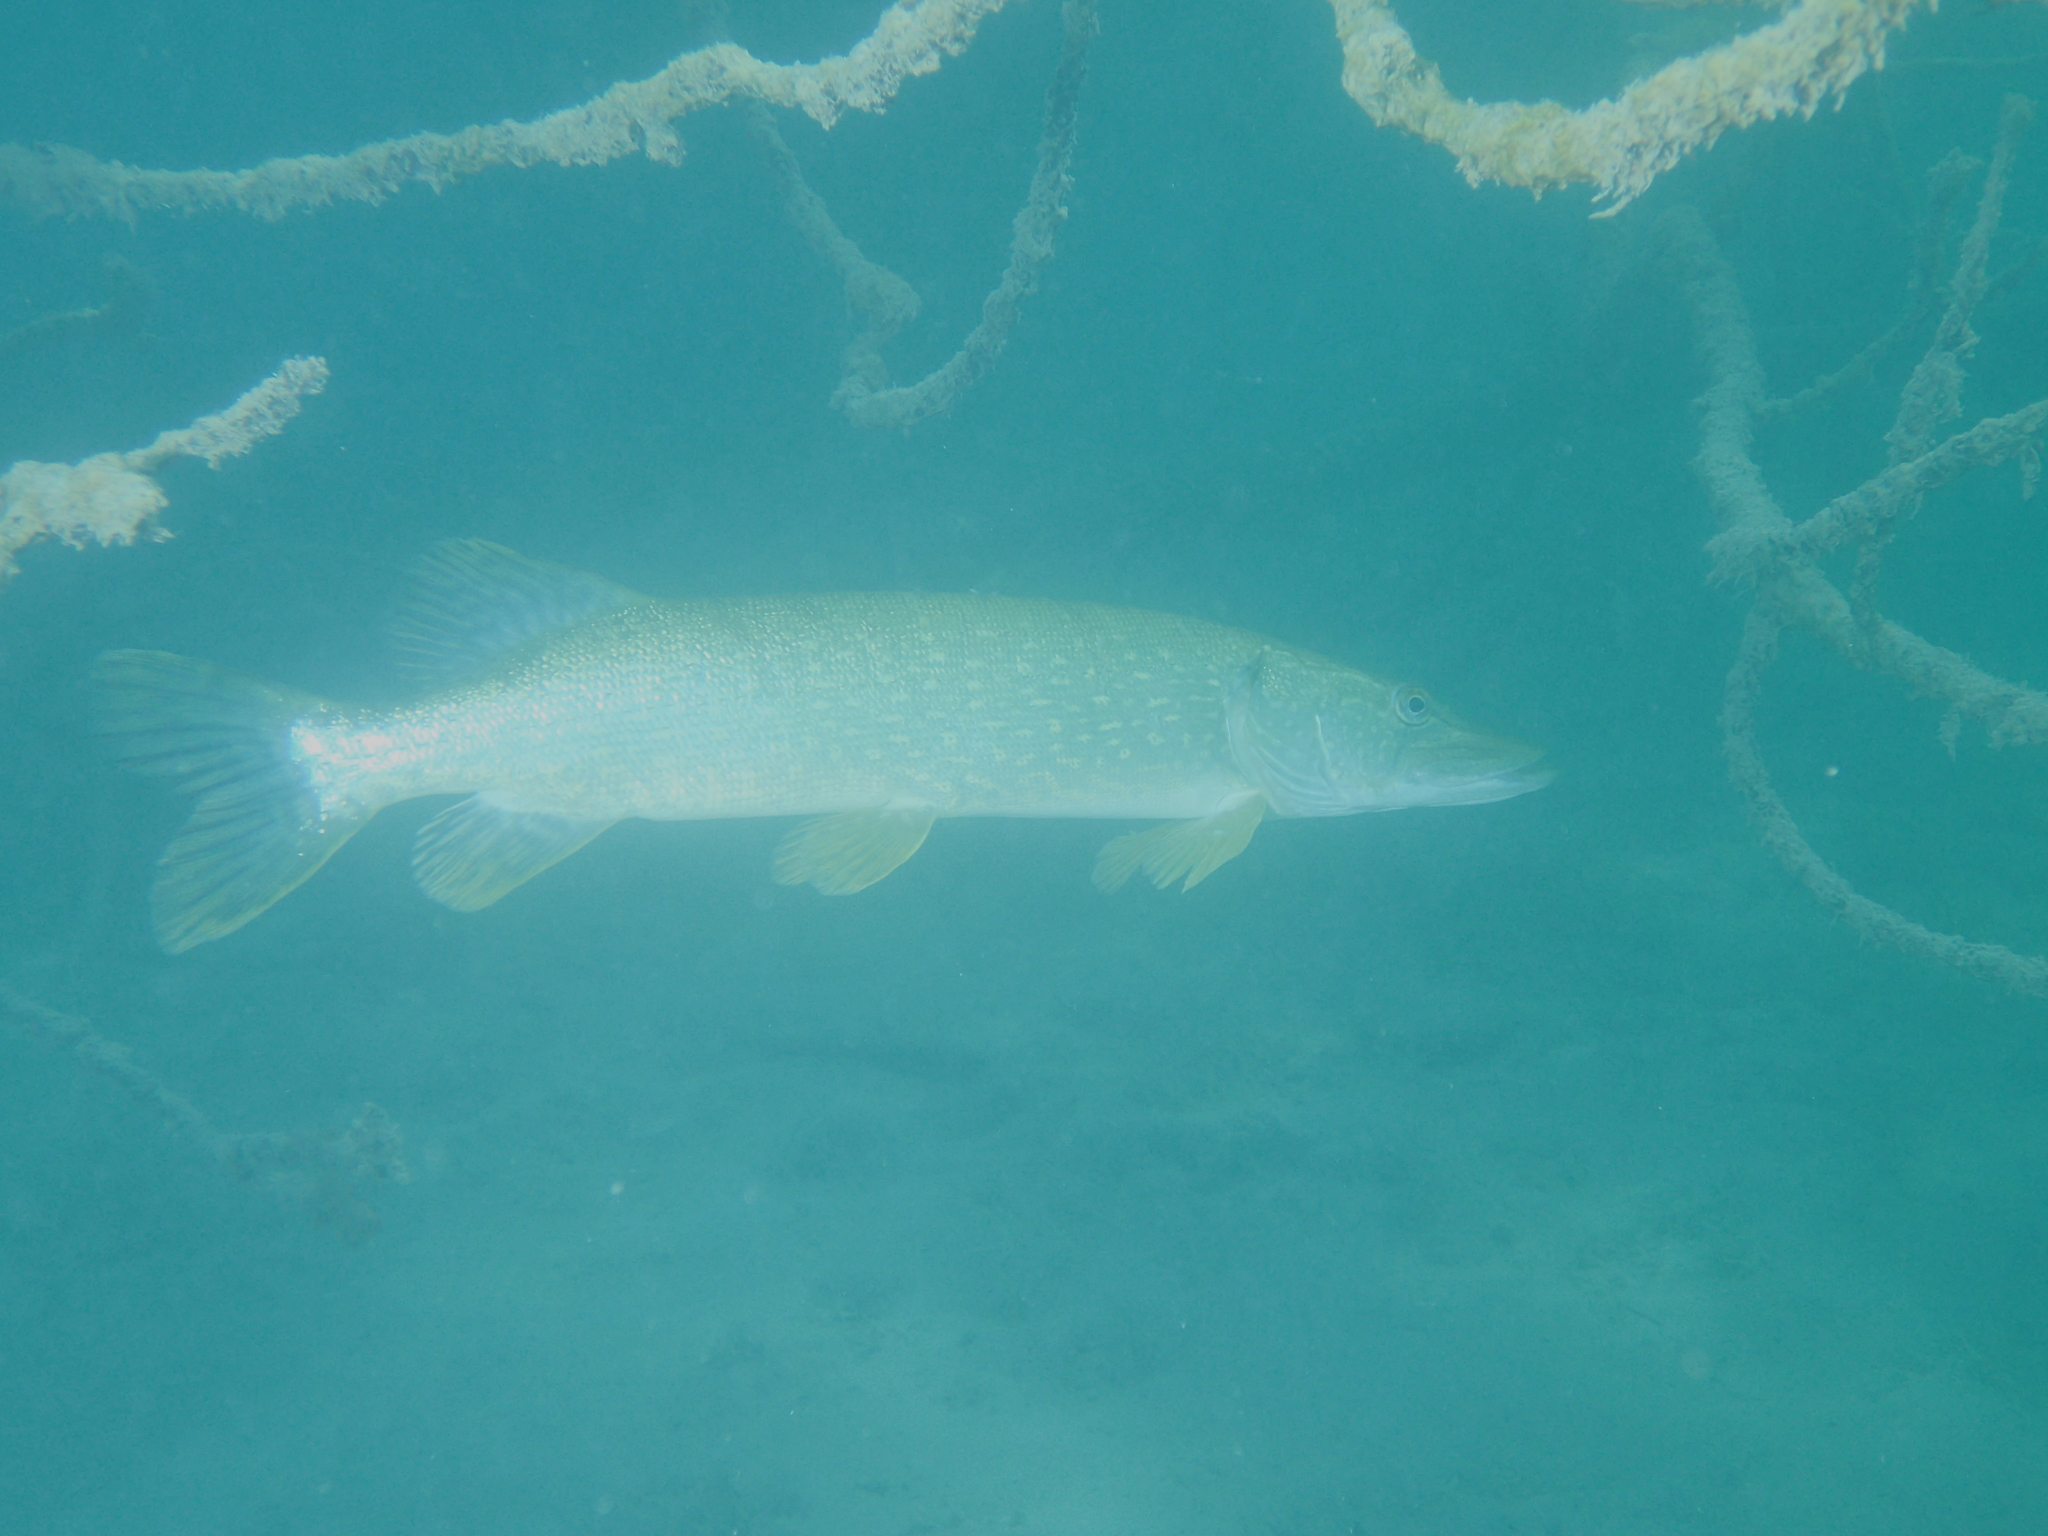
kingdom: Animalia
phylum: Chordata
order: Esociformes
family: Esocidae
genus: Esox
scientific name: Esox lucius
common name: Northern pike
